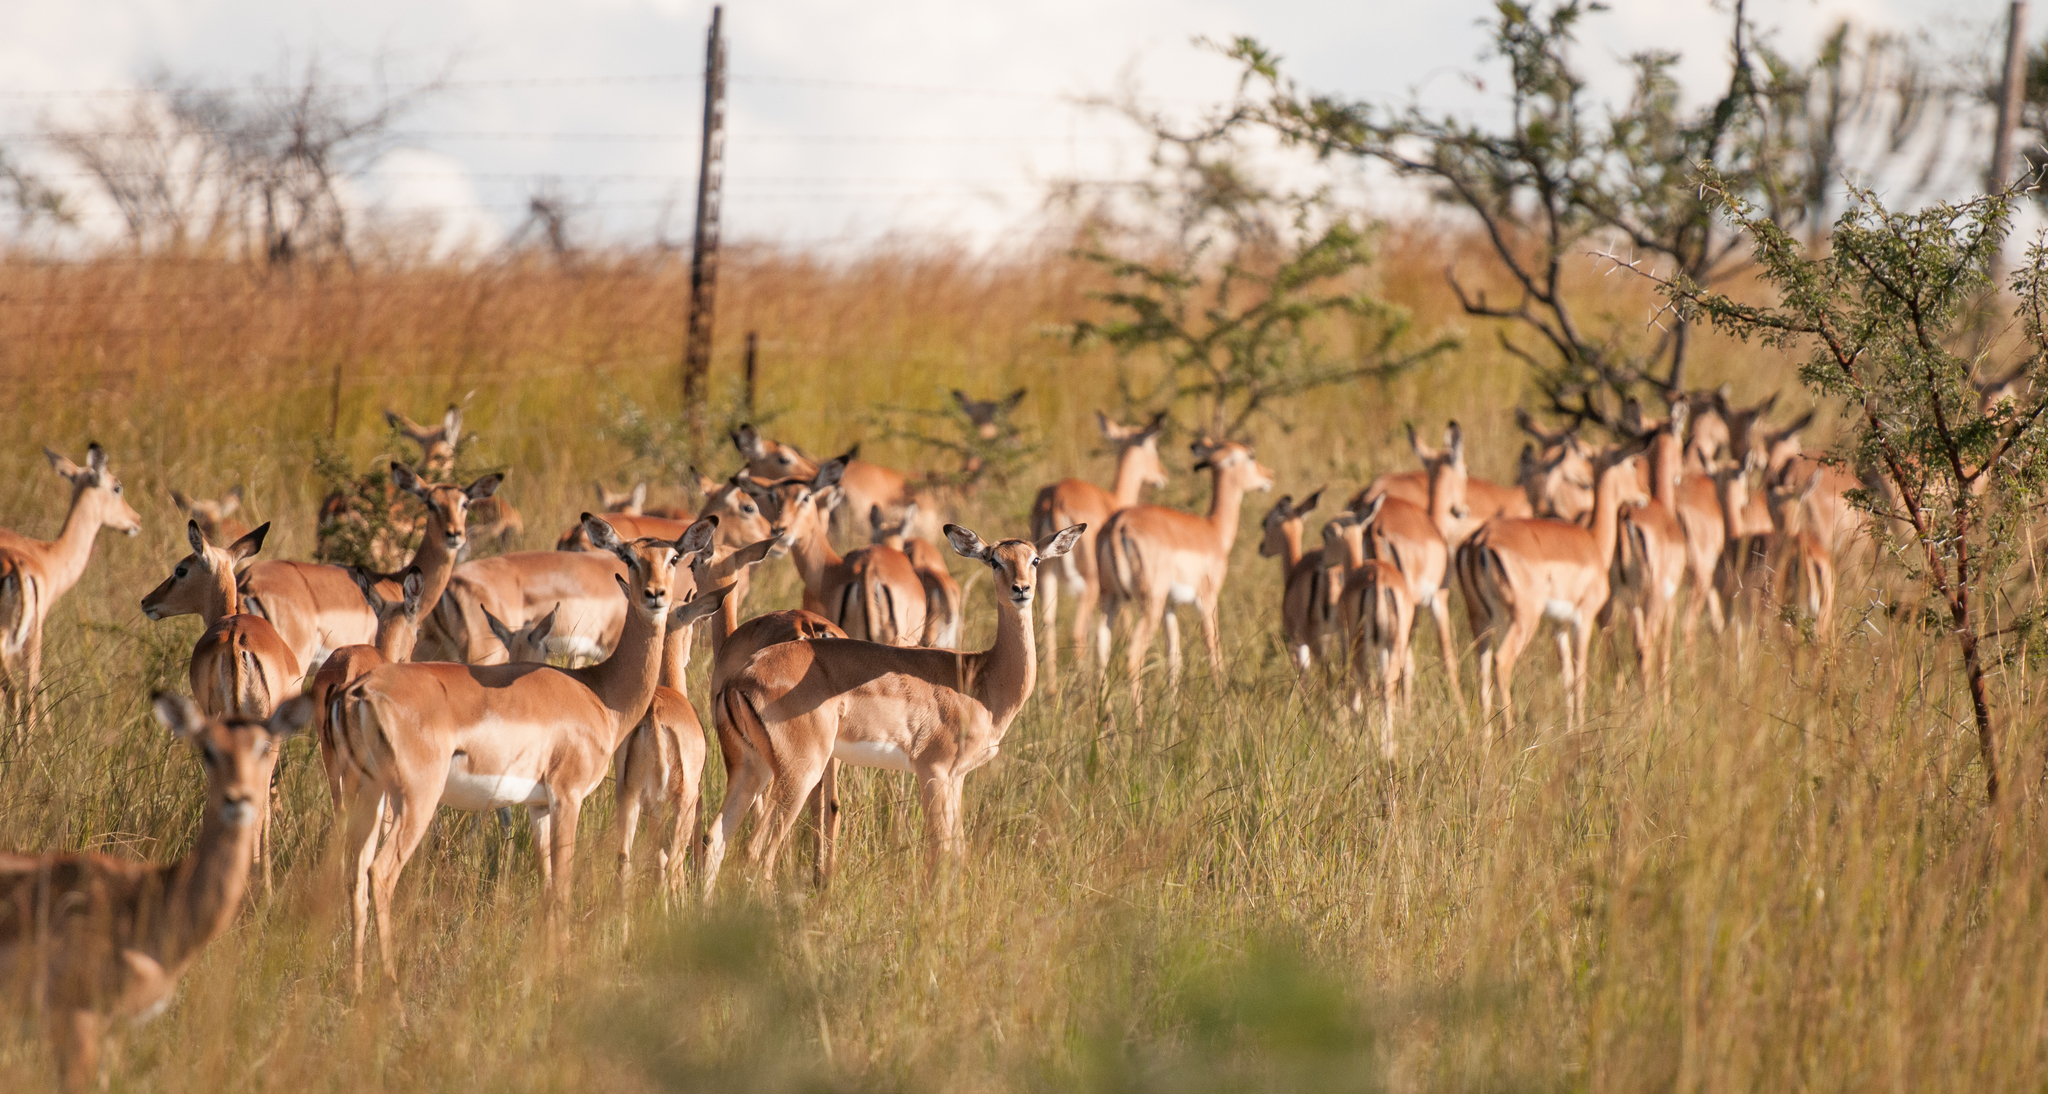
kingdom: Animalia
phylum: Chordata
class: Mammalia
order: Artiodactyla
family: Bovidae
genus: Aepyceros
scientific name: Aepyceros melampus
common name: Impala
